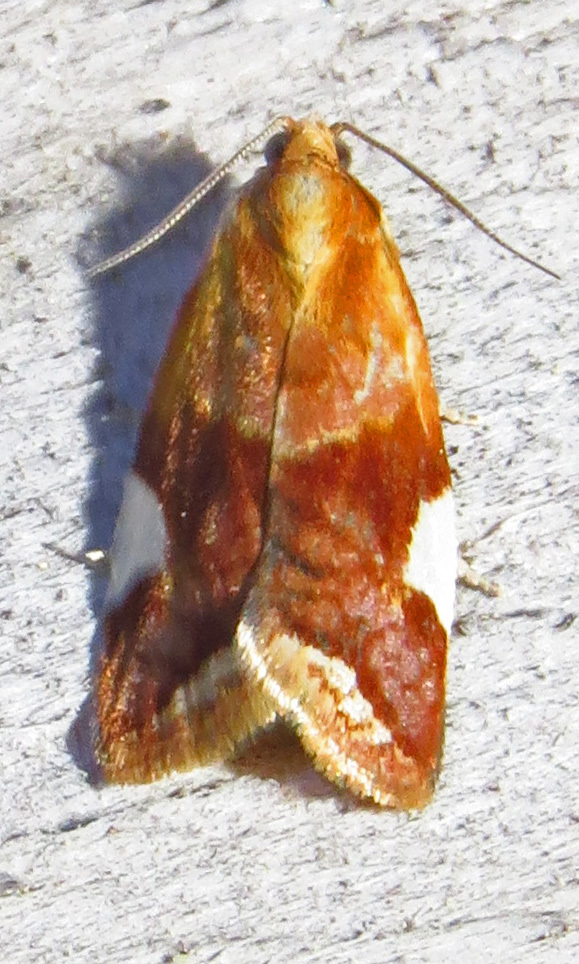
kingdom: Animalia
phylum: Arthropoda
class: Insecta
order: Lepidoptera
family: Tortricidae
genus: Clepsis
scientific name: Clepsis persicana
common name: White triangle tortrix
